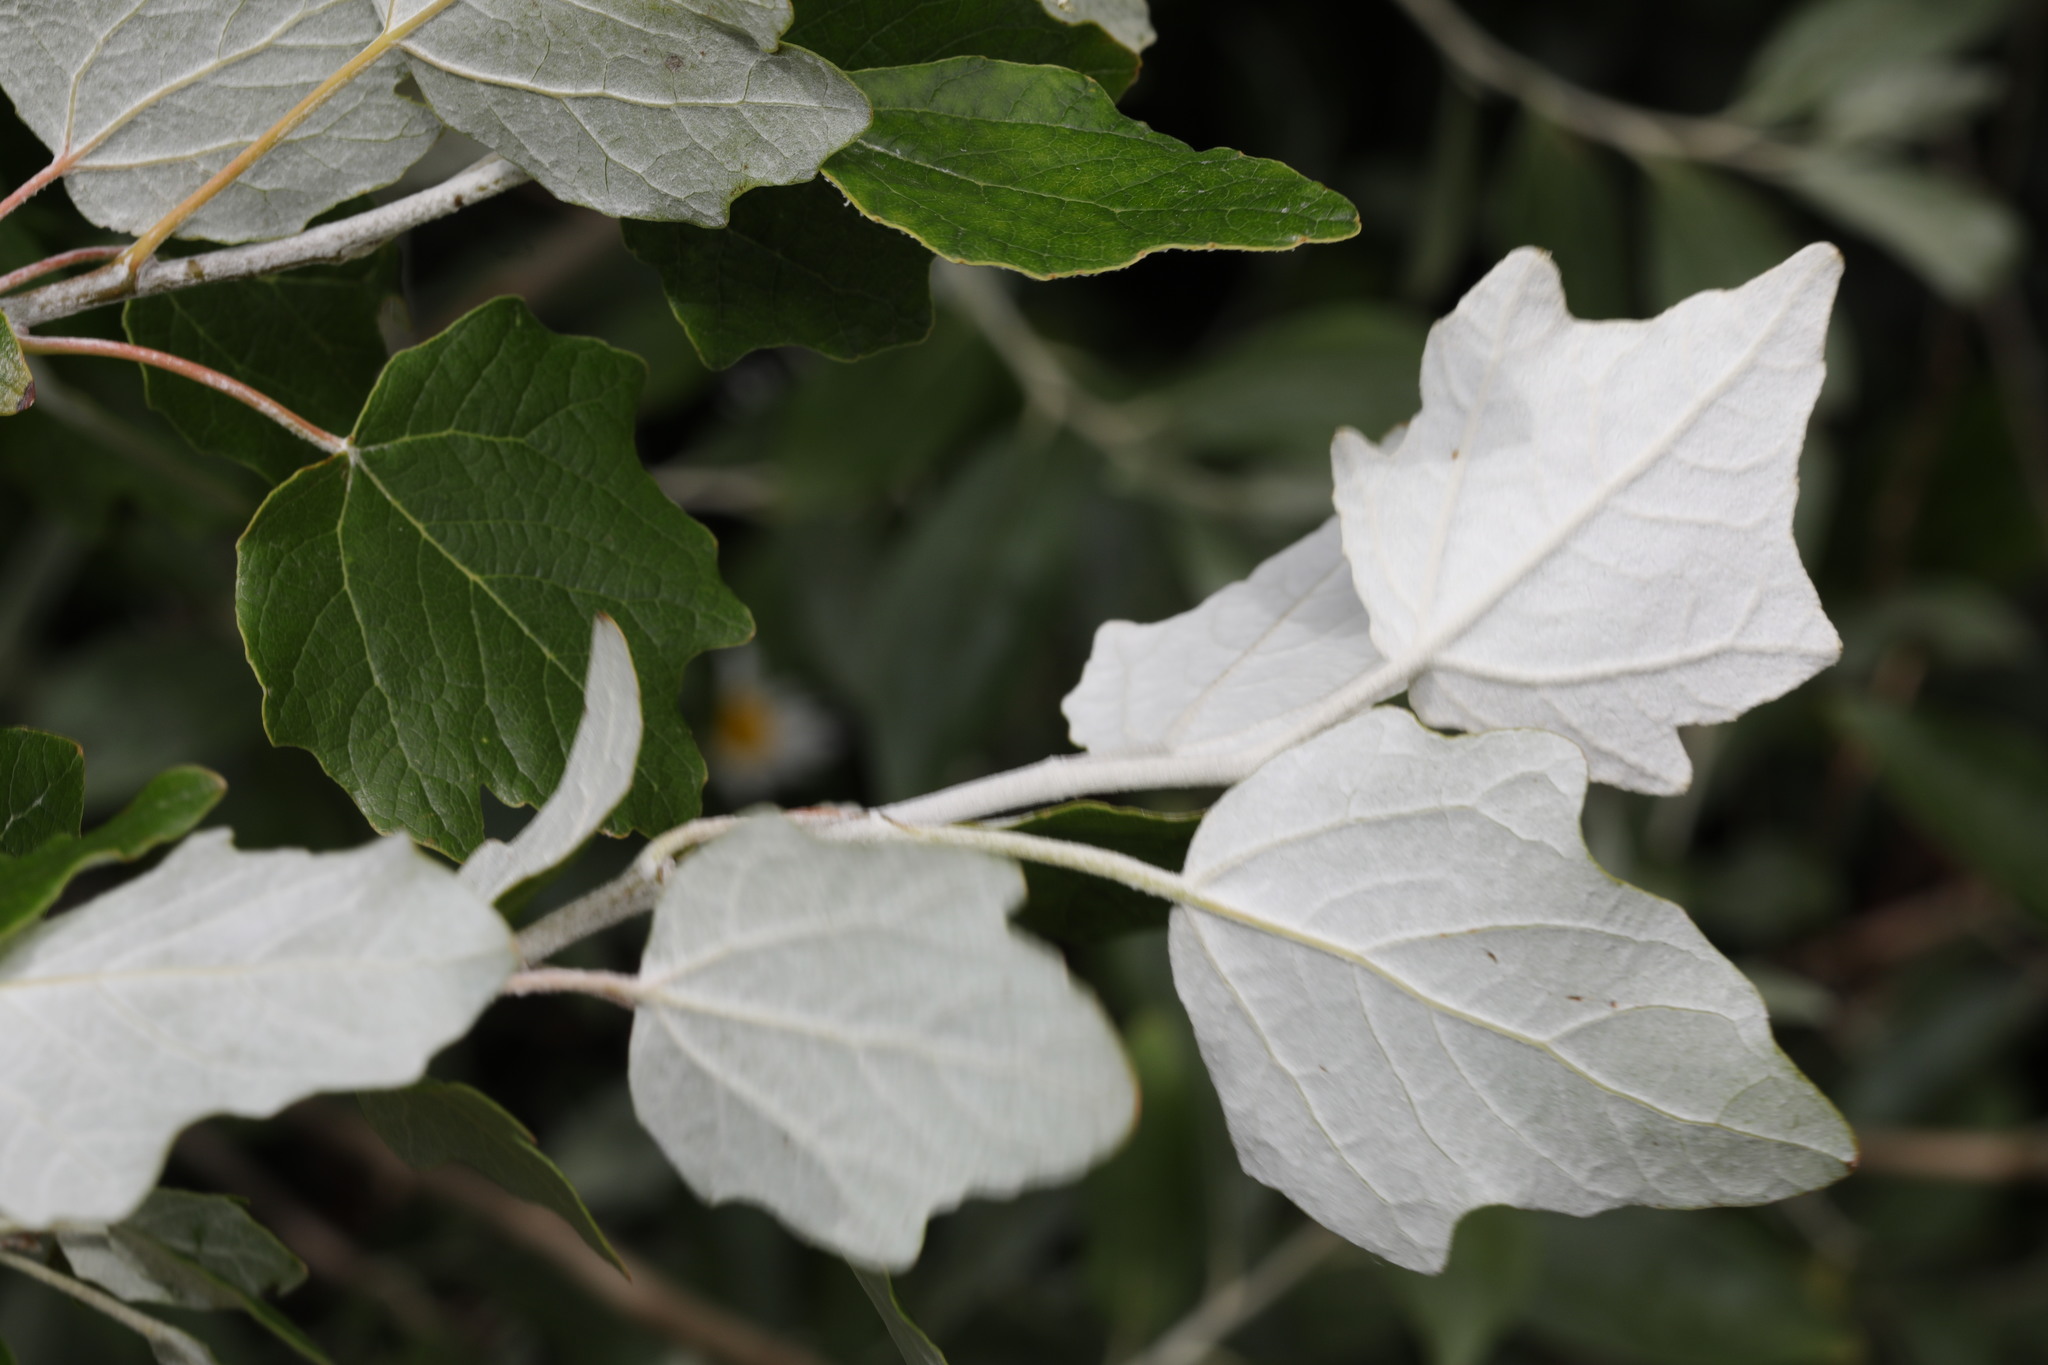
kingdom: Plantae
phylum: Tracheophyta
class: Magnoliopsida
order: Malpighiales
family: Salicaceae
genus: Populus
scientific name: Populus alba
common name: White poplar
